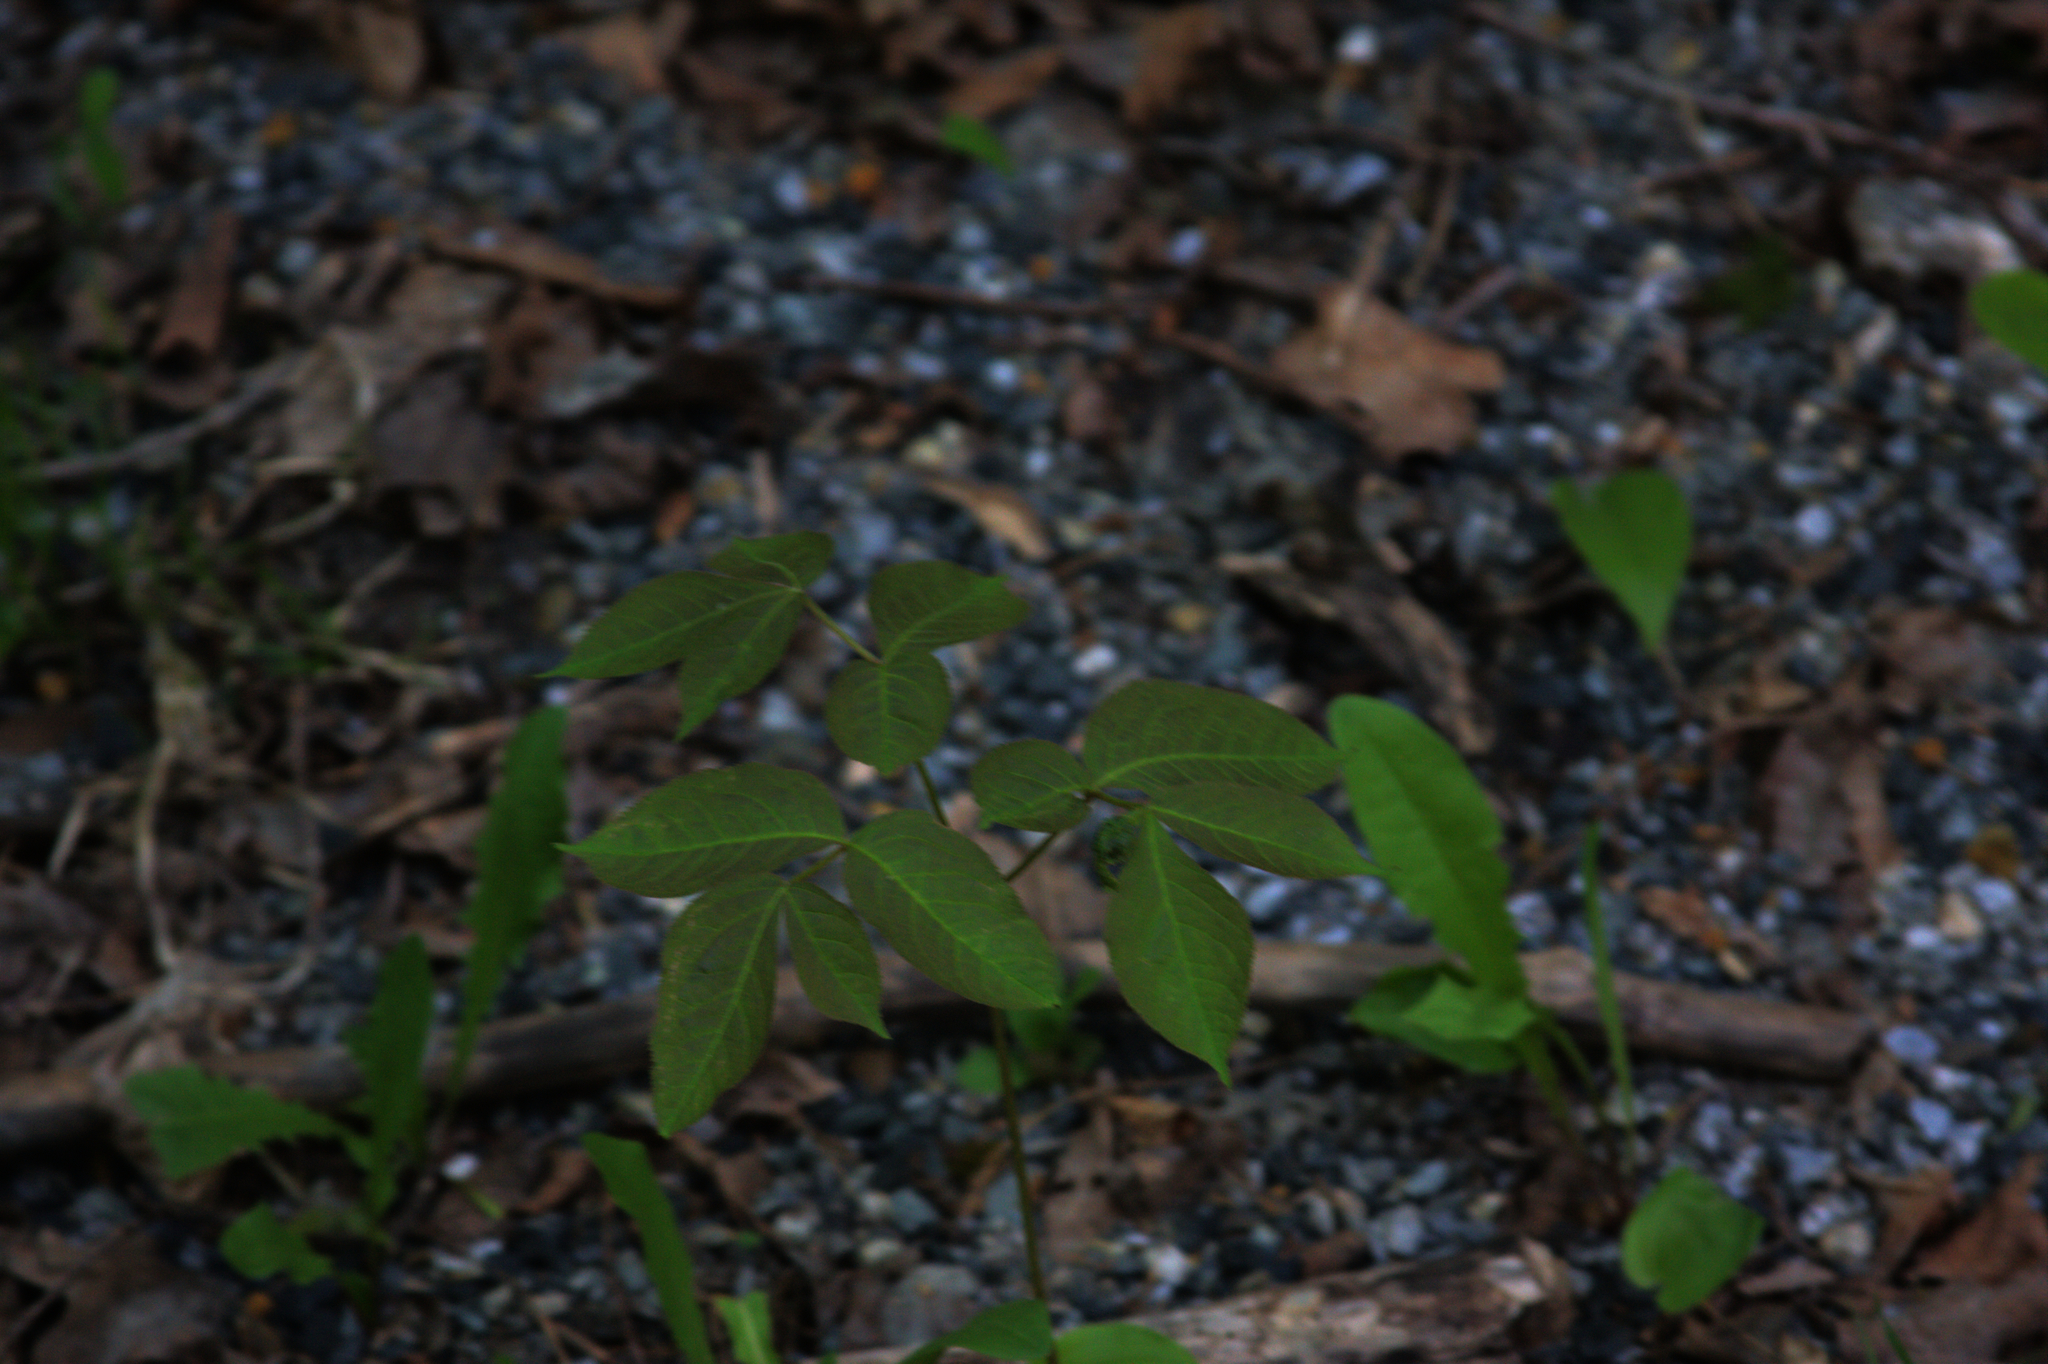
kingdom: Plantae
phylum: Tracheophyta
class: Magnoliopsida
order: Apiales
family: Araliaceae
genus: Aralia
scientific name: Aralia nudicaulis
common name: Wild sarsaparilla
